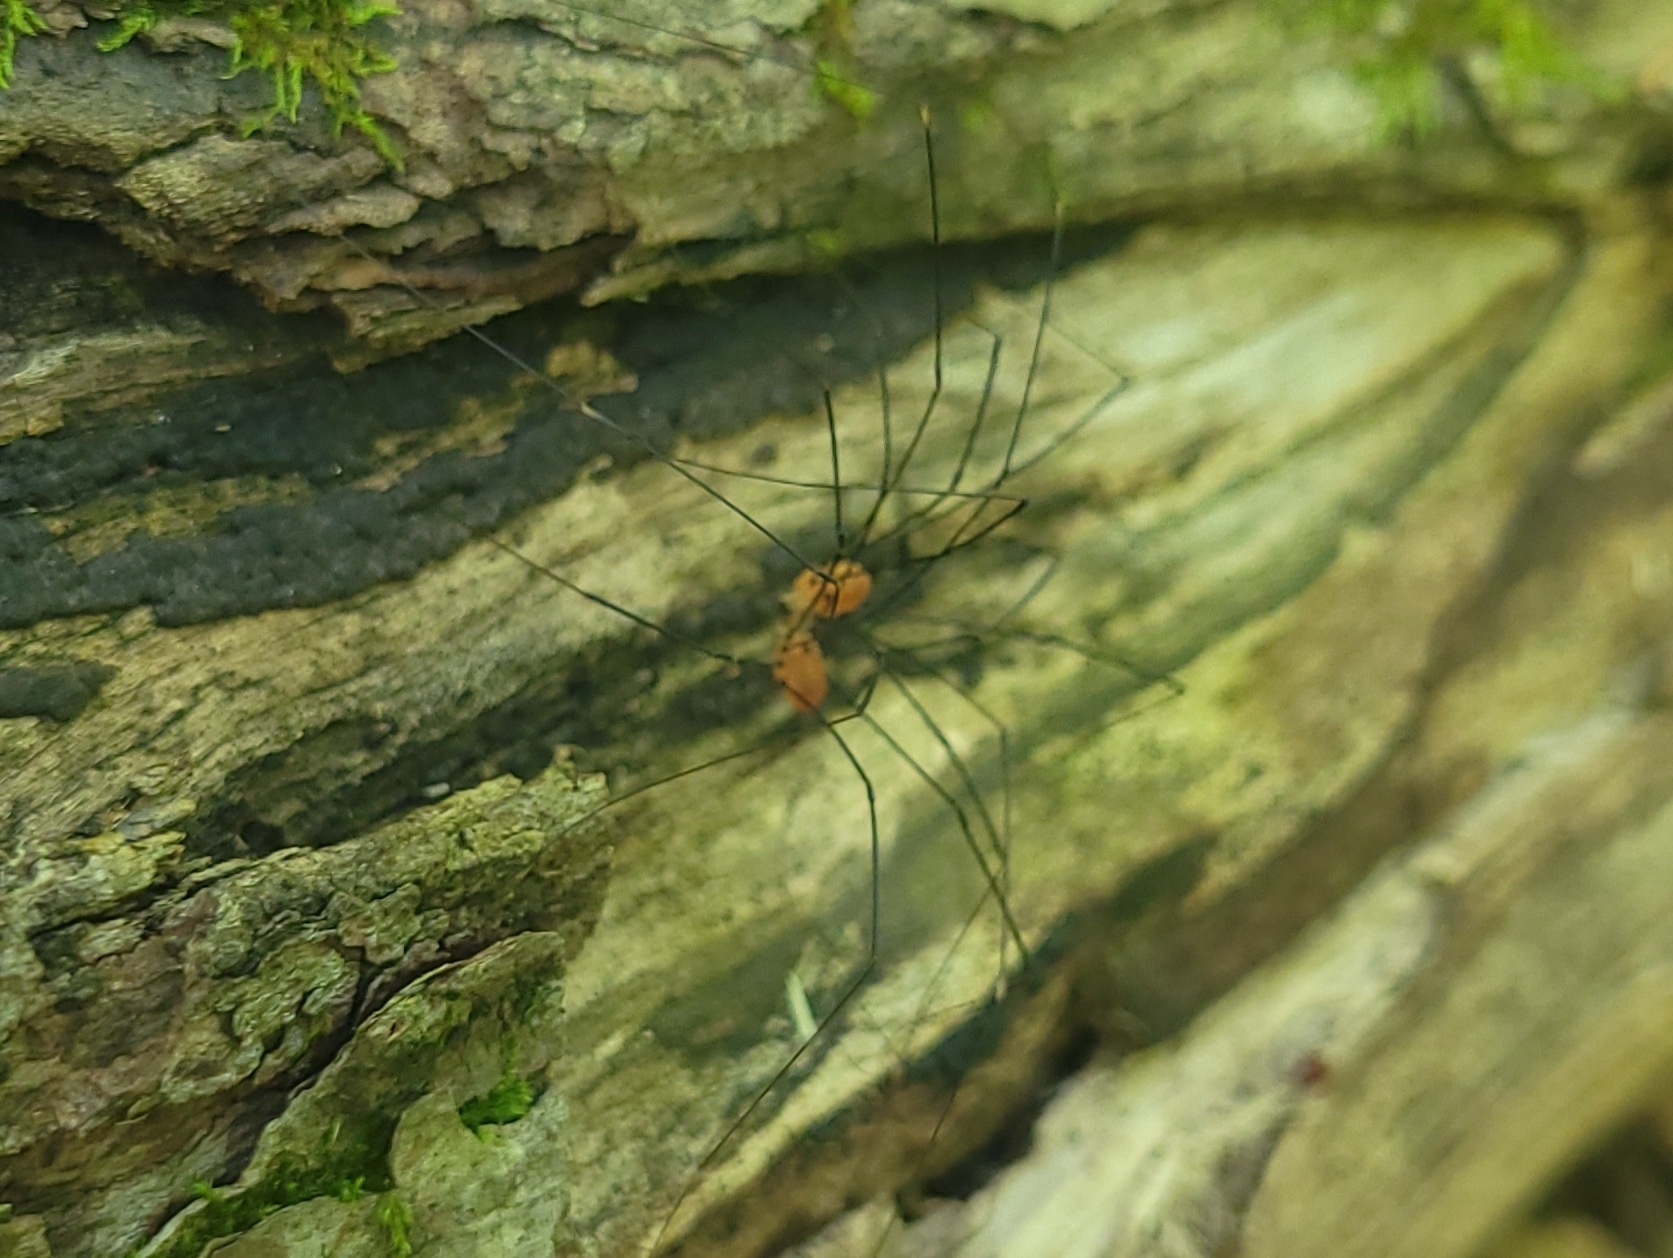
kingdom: Animalia
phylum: Arthropoda
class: Arachnida
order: Opiliones
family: Sclerosomatidae
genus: Leiobunum
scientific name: Leiobunum aldrichi
